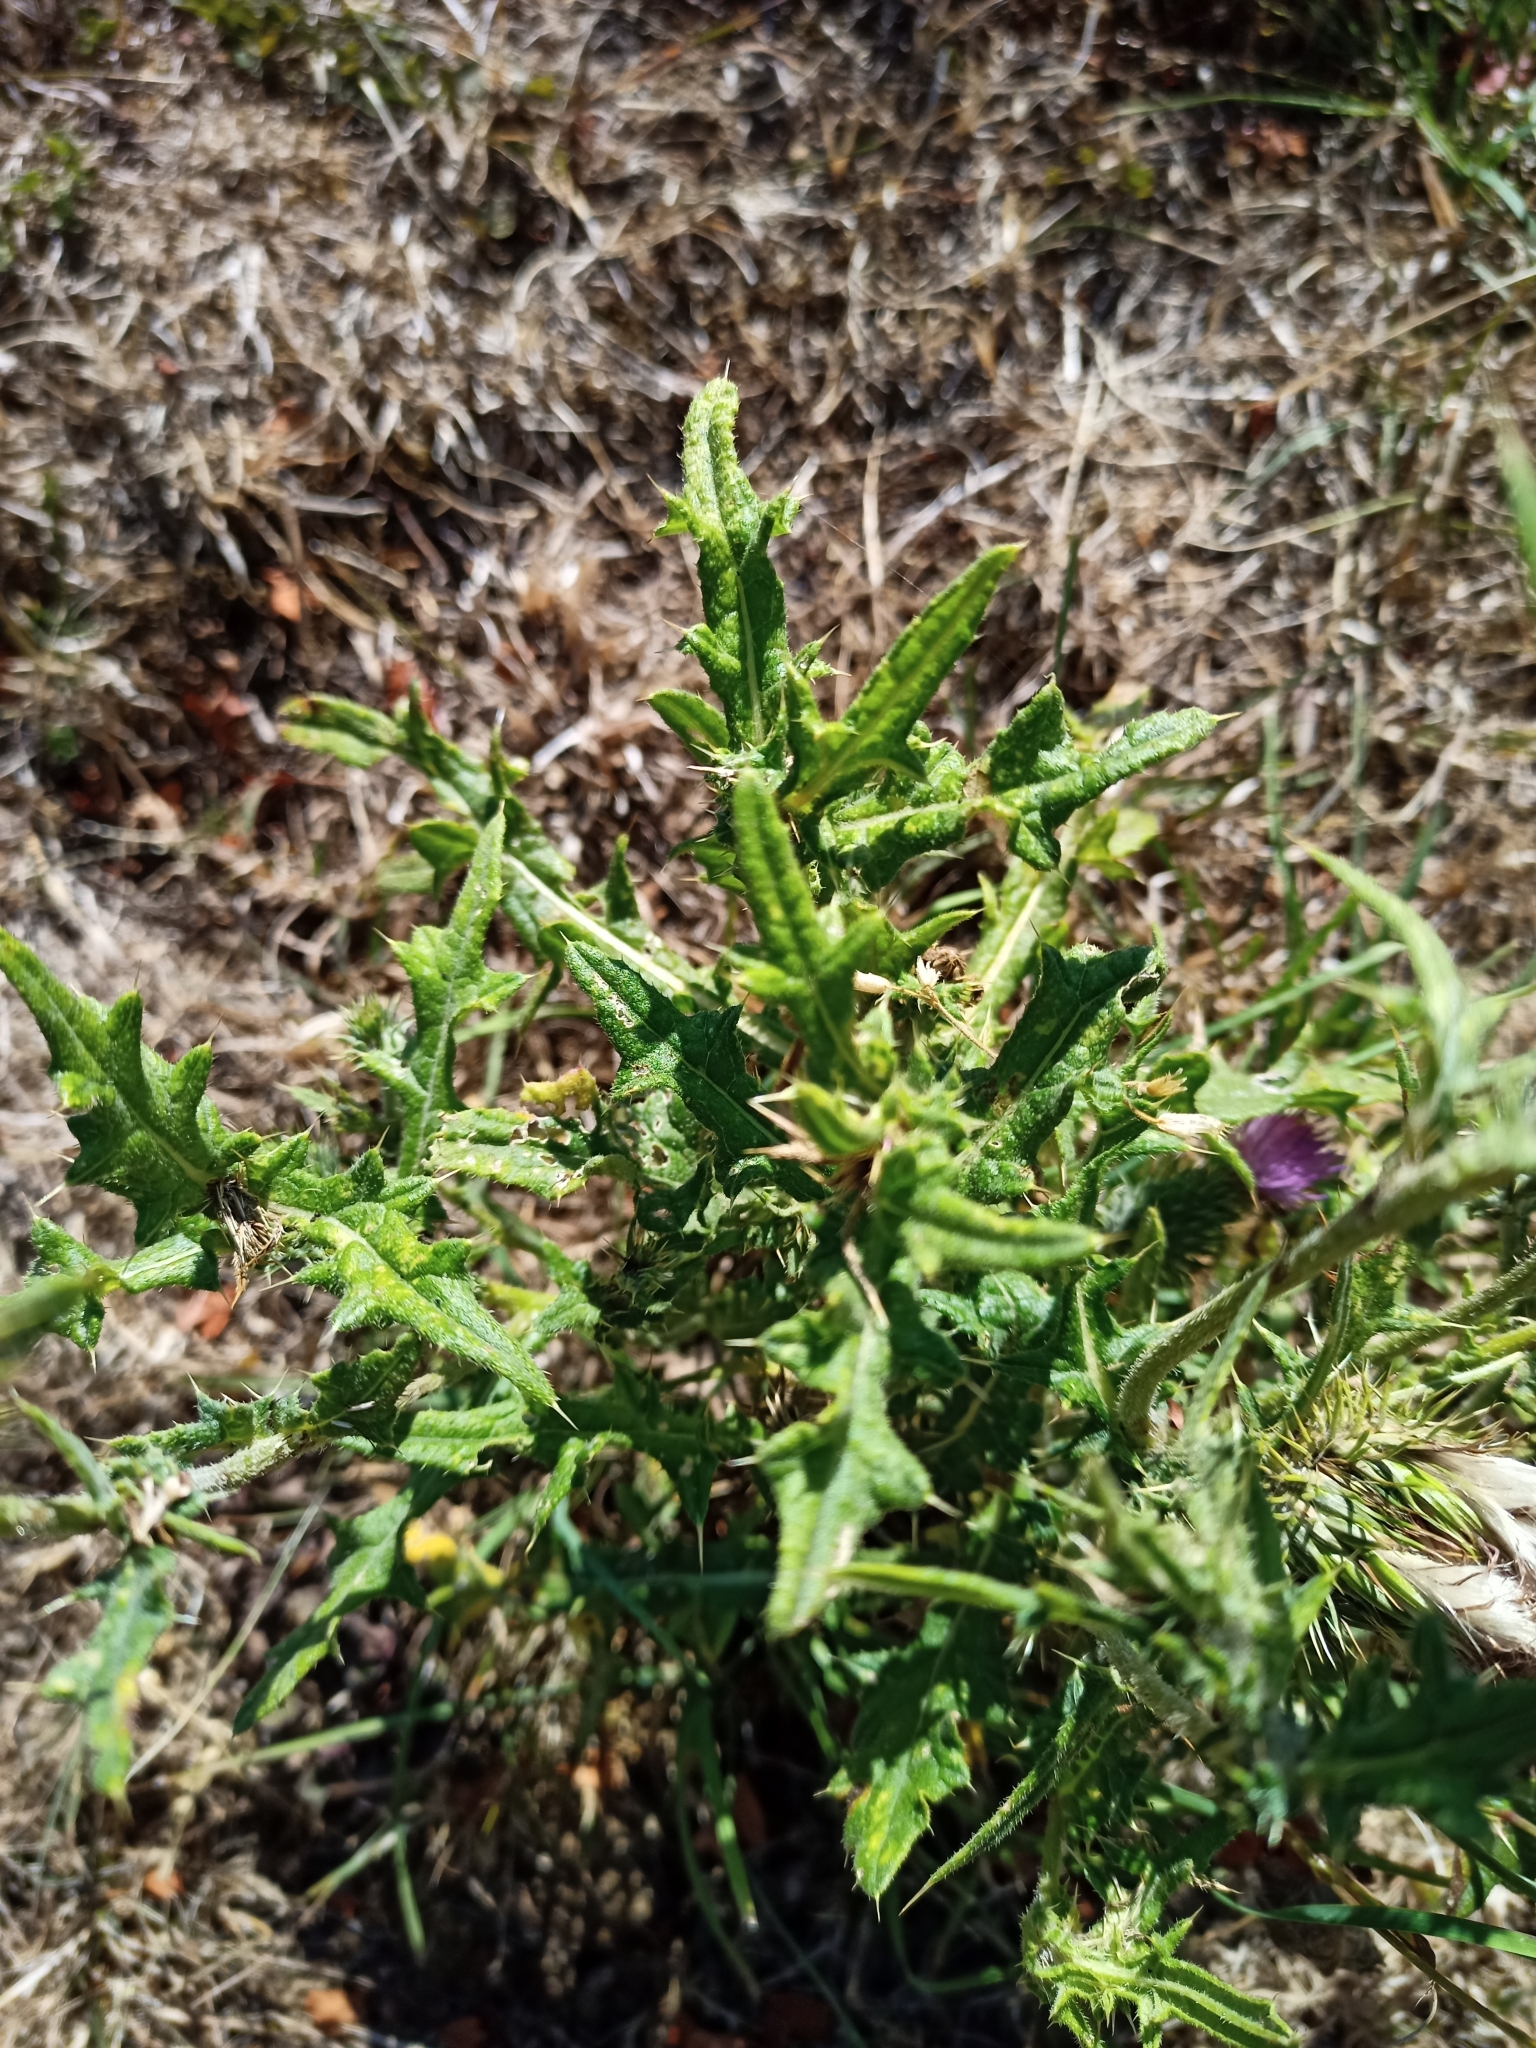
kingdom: Plantae
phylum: Tracheophyta
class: Magnoliopsida
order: Asterales
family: Asteraceae
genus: Cirsium
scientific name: Cirsium vulgare
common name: Bull thistle
